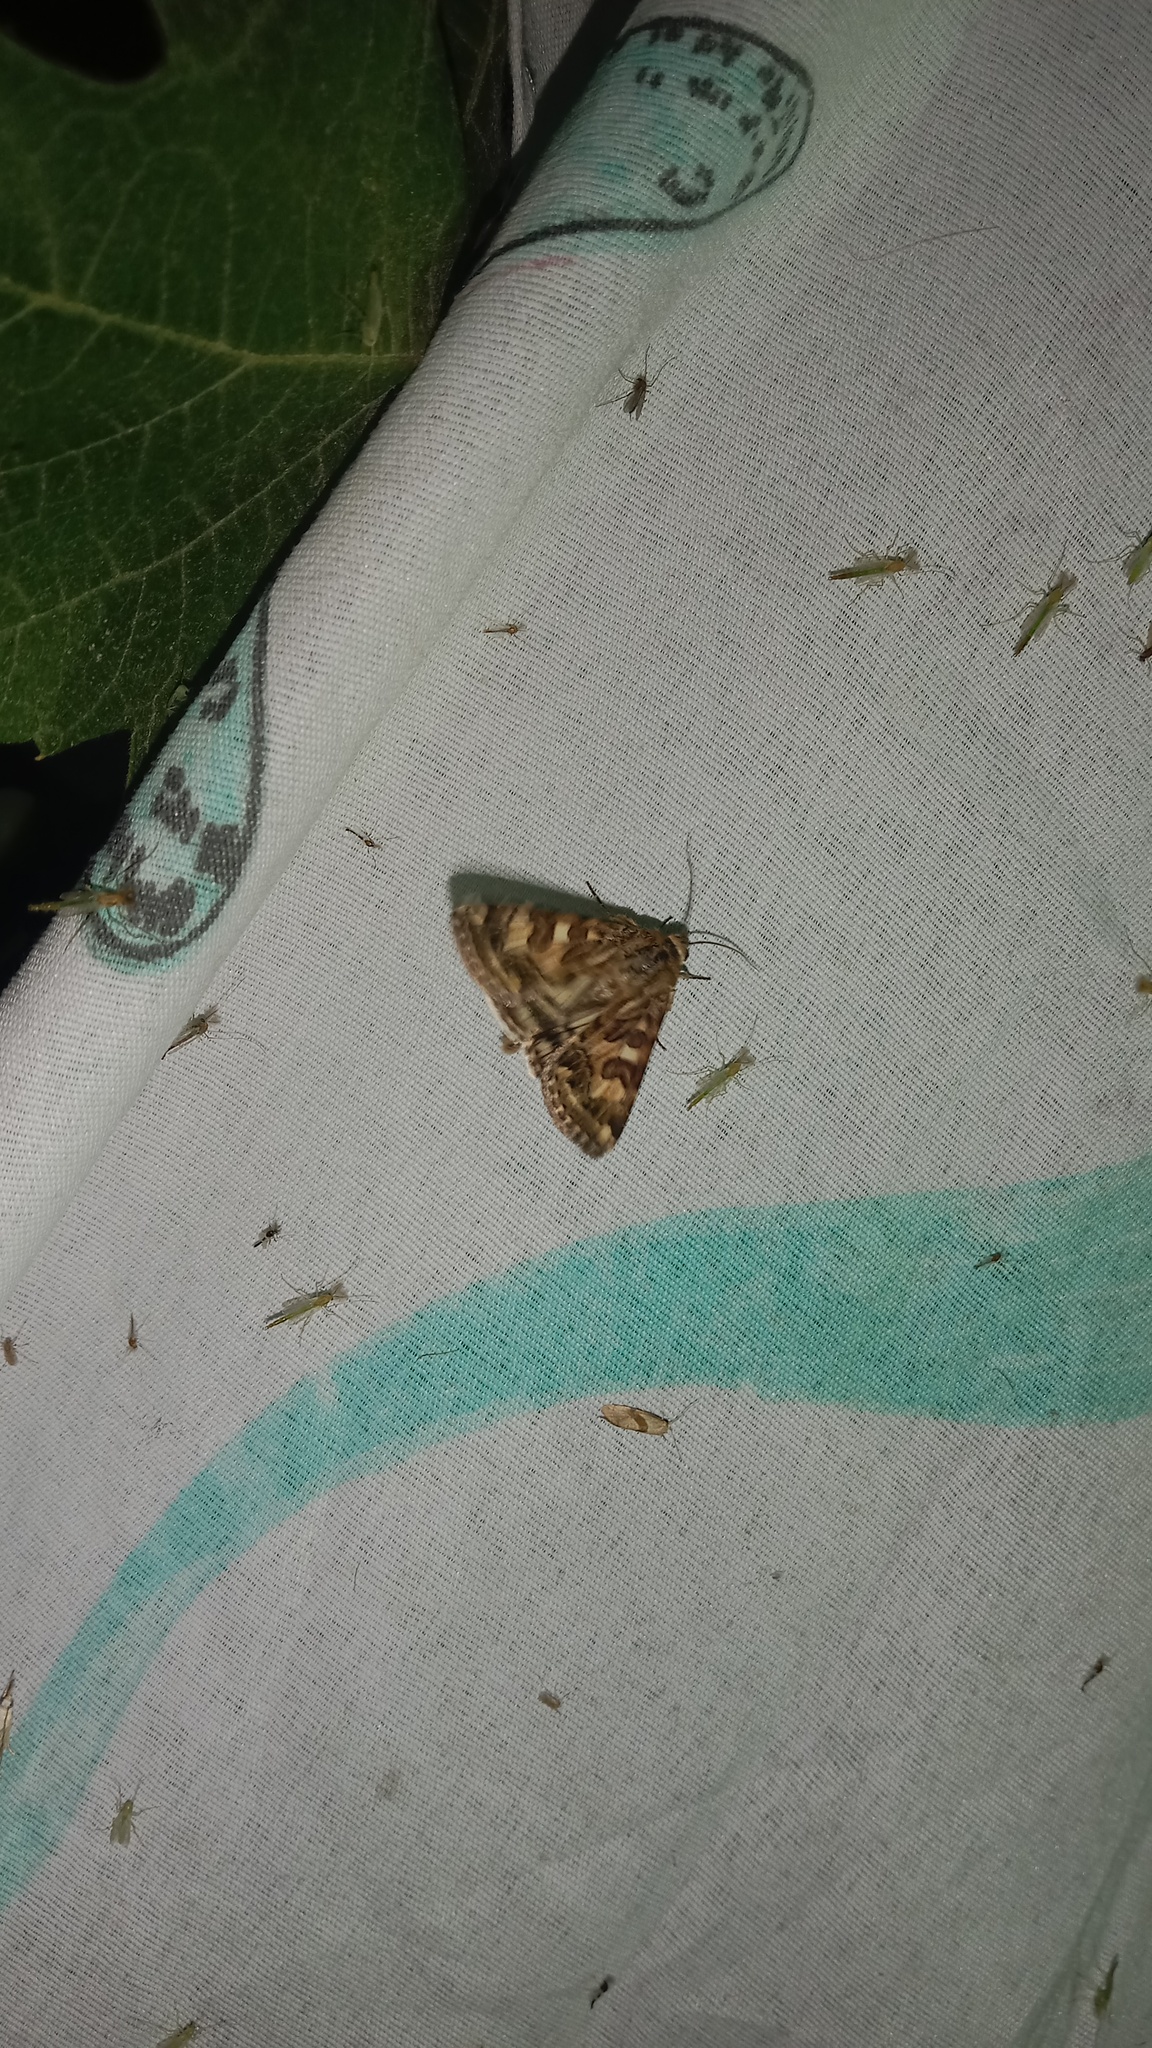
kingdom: Animalia
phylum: Arthropoda
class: Insecta
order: Lepidoptera
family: Noctuidae
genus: Protoschinia
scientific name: Protoschinia scutosa
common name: Spotted clover
